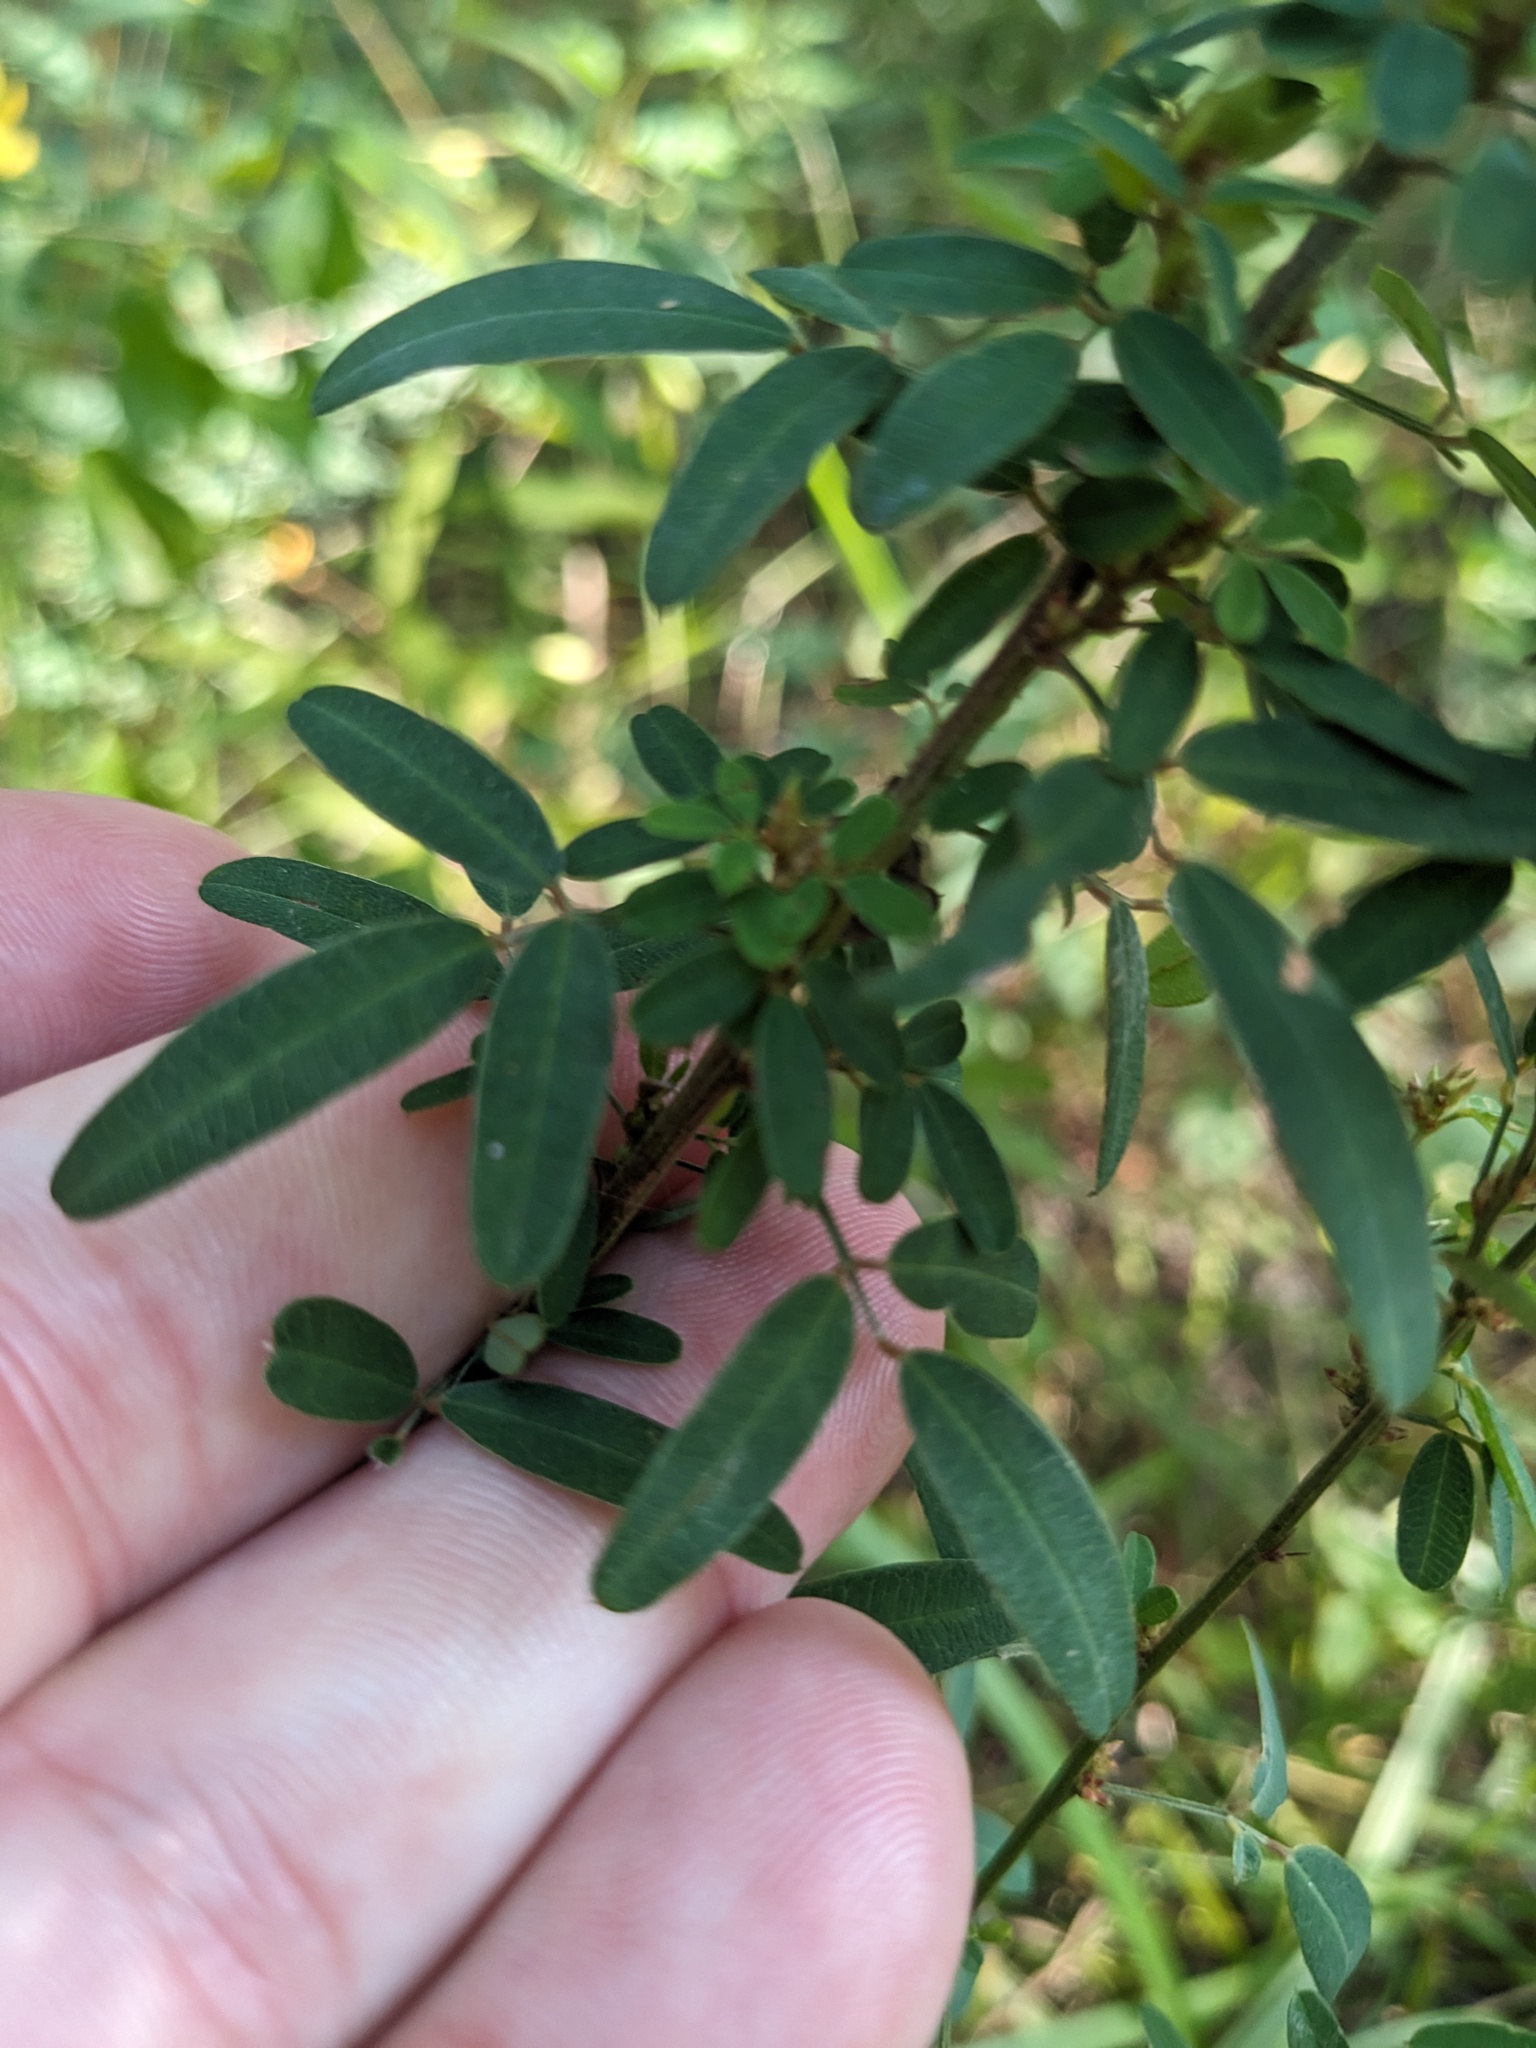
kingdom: Plantae
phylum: Tracheophyta
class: Magnoliopsida
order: Fabales
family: Fabaceae
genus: Lespedeza
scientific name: Lespedeza virginica
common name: Slender bush-clover
